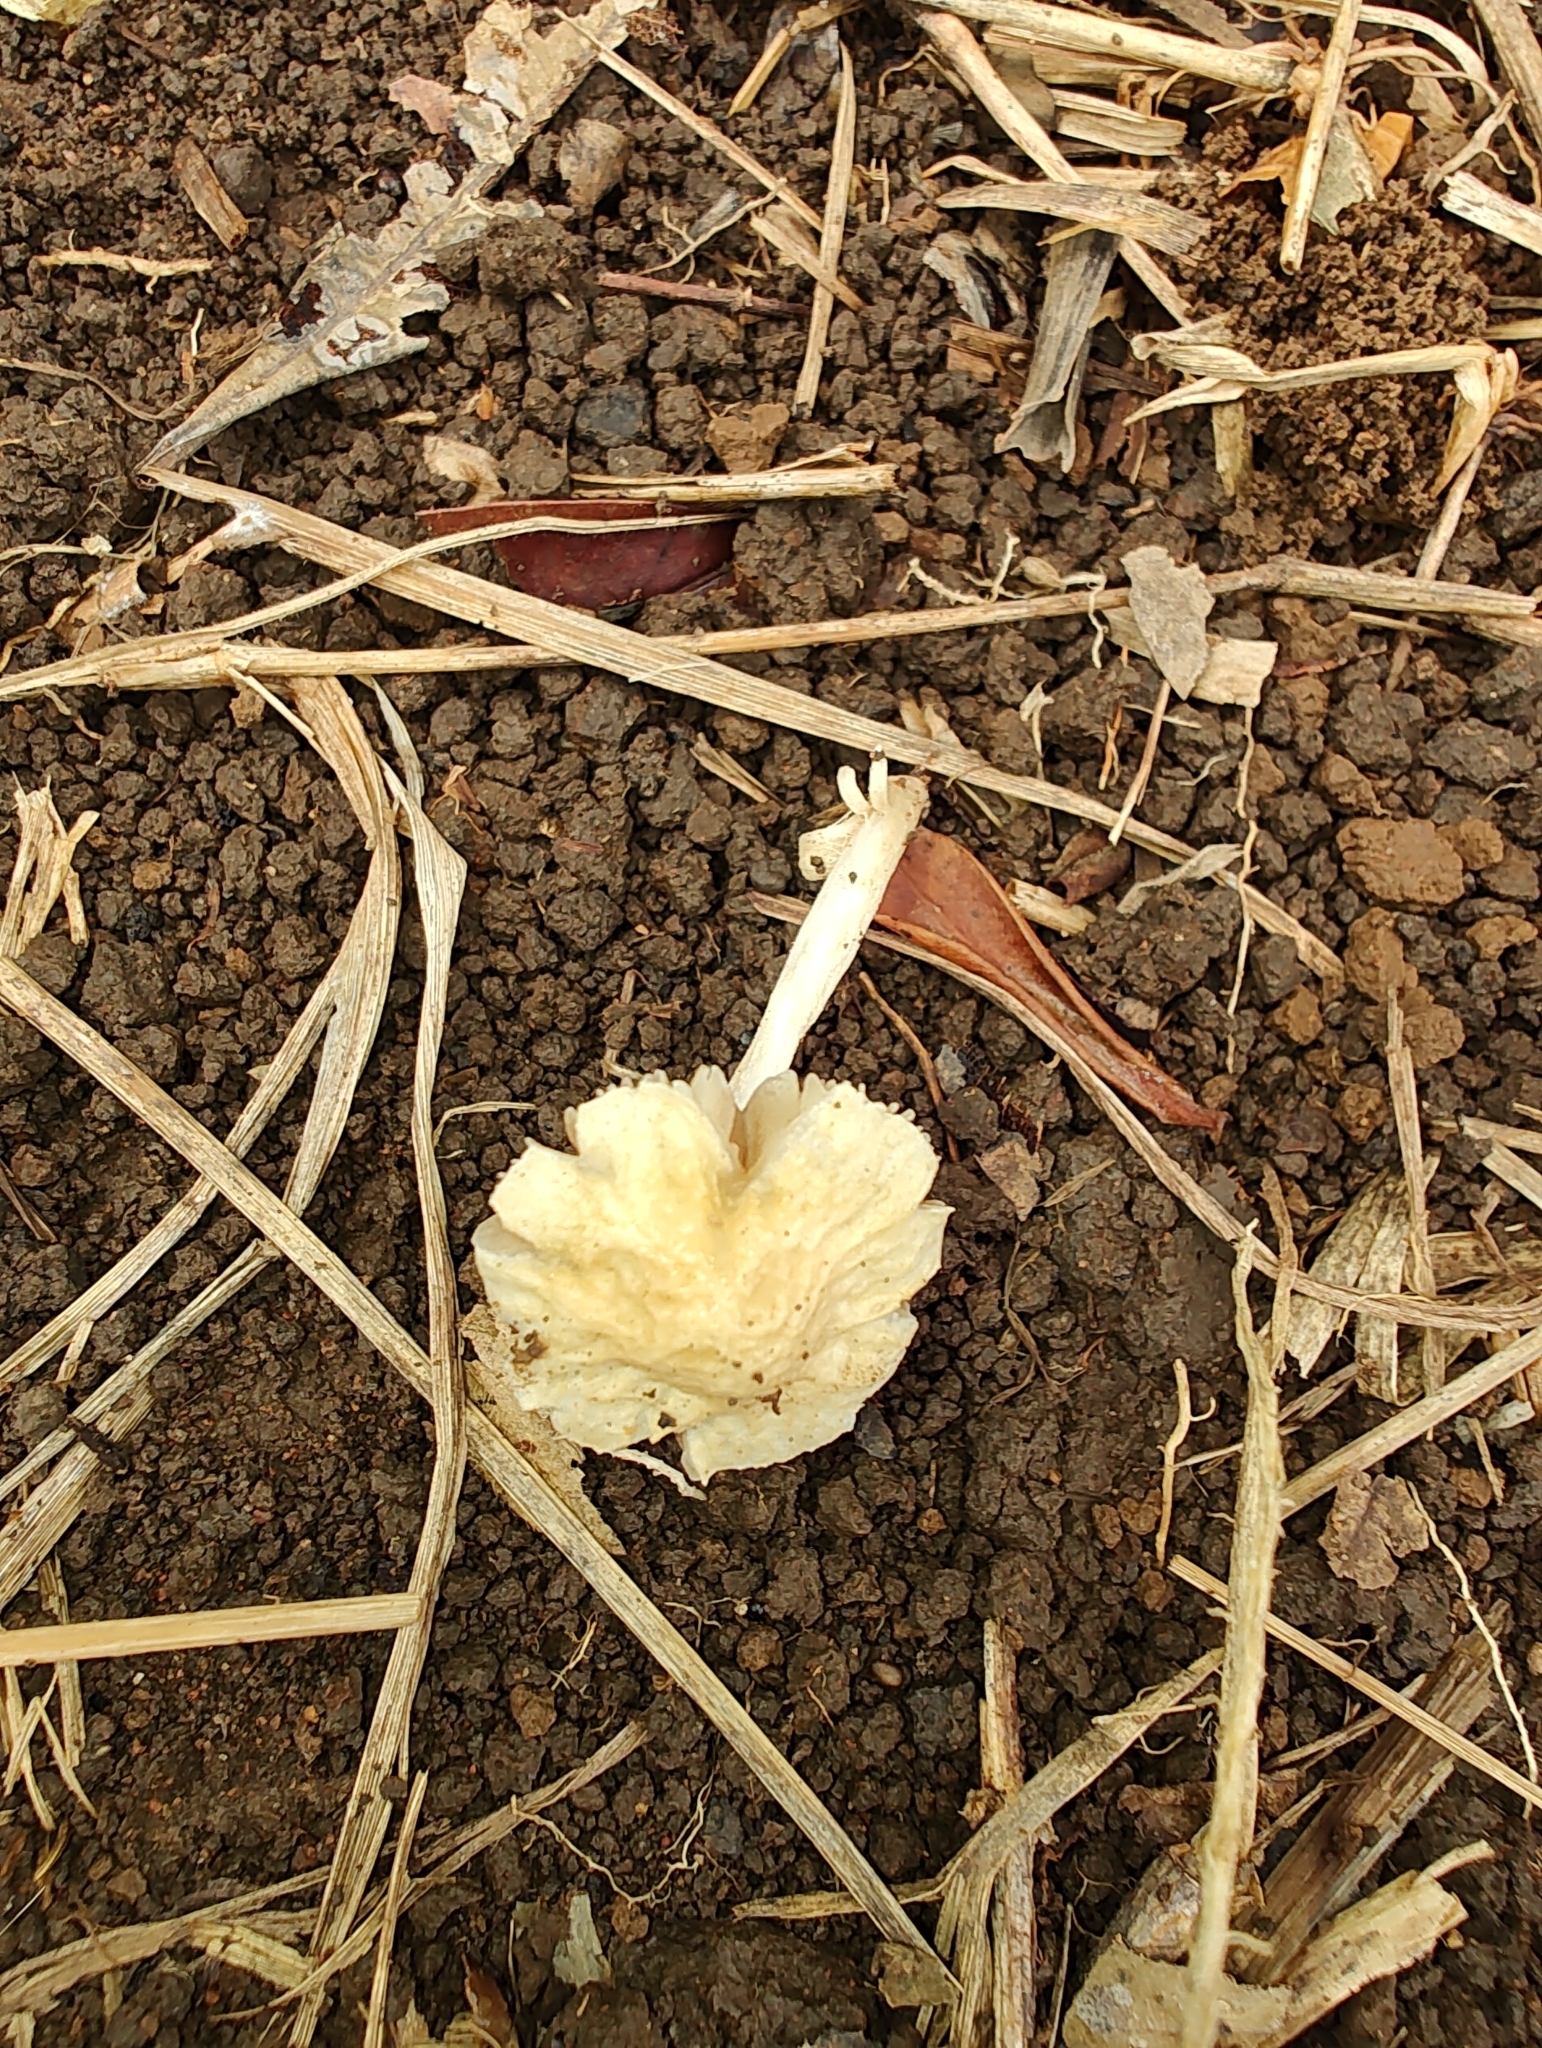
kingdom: Fungi
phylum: Basidiomycota
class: Agaricomycetes
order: Agaricales
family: Strophariaceae
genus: Agrocybe
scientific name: Agrocybe retigera
